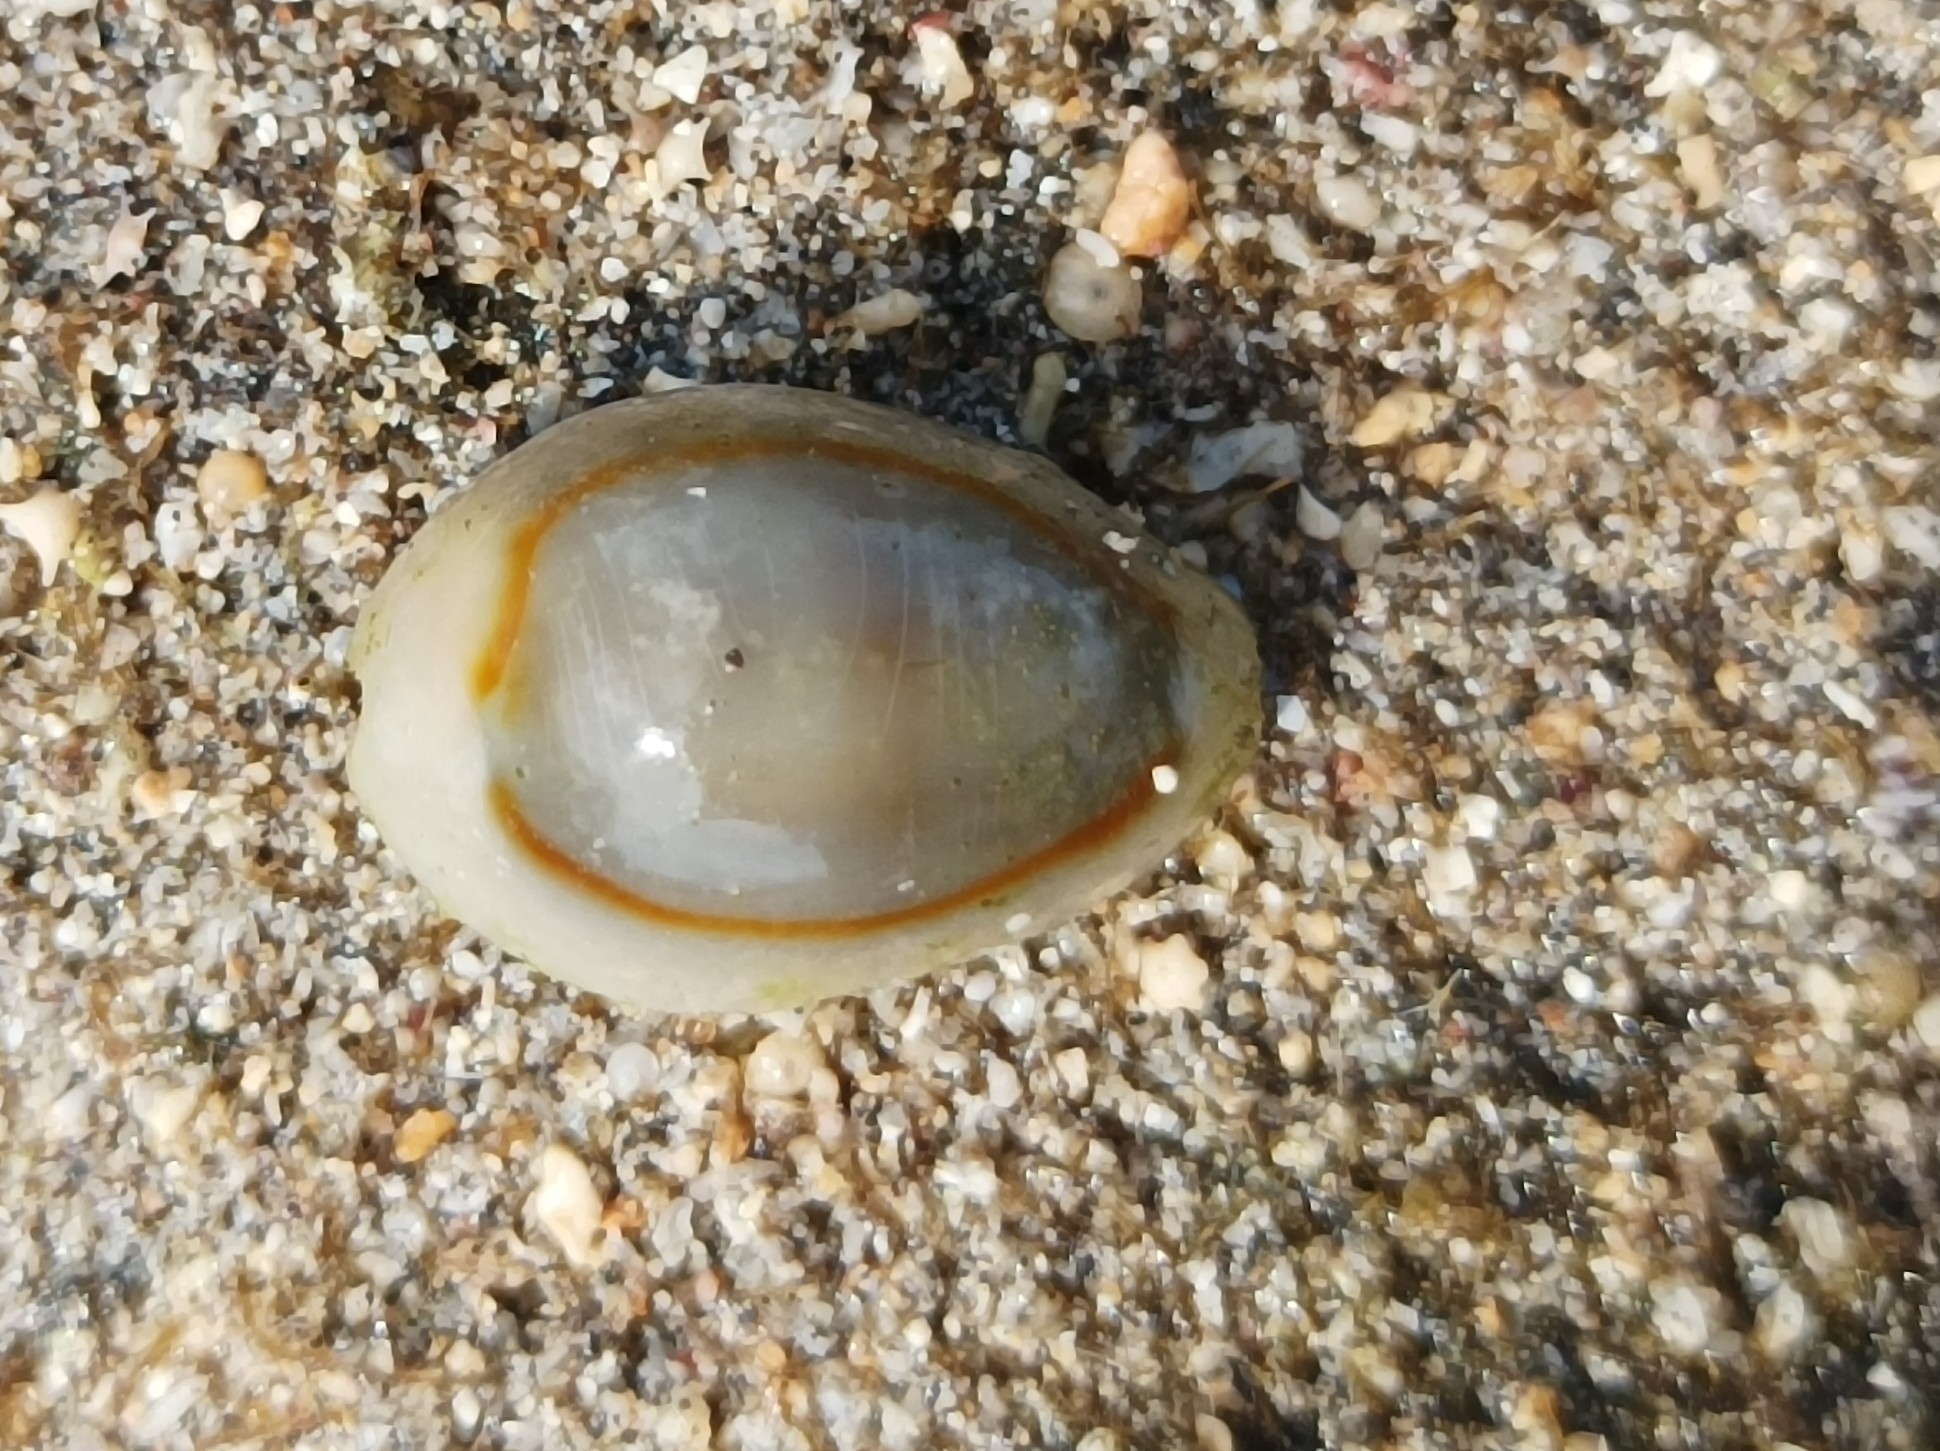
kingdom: Animalia
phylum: Mollusca
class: Gastropoda
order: Littorinimorpha
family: Cypraeidae
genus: Monetaria
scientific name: Monetaria annulus
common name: Ring cowrie
